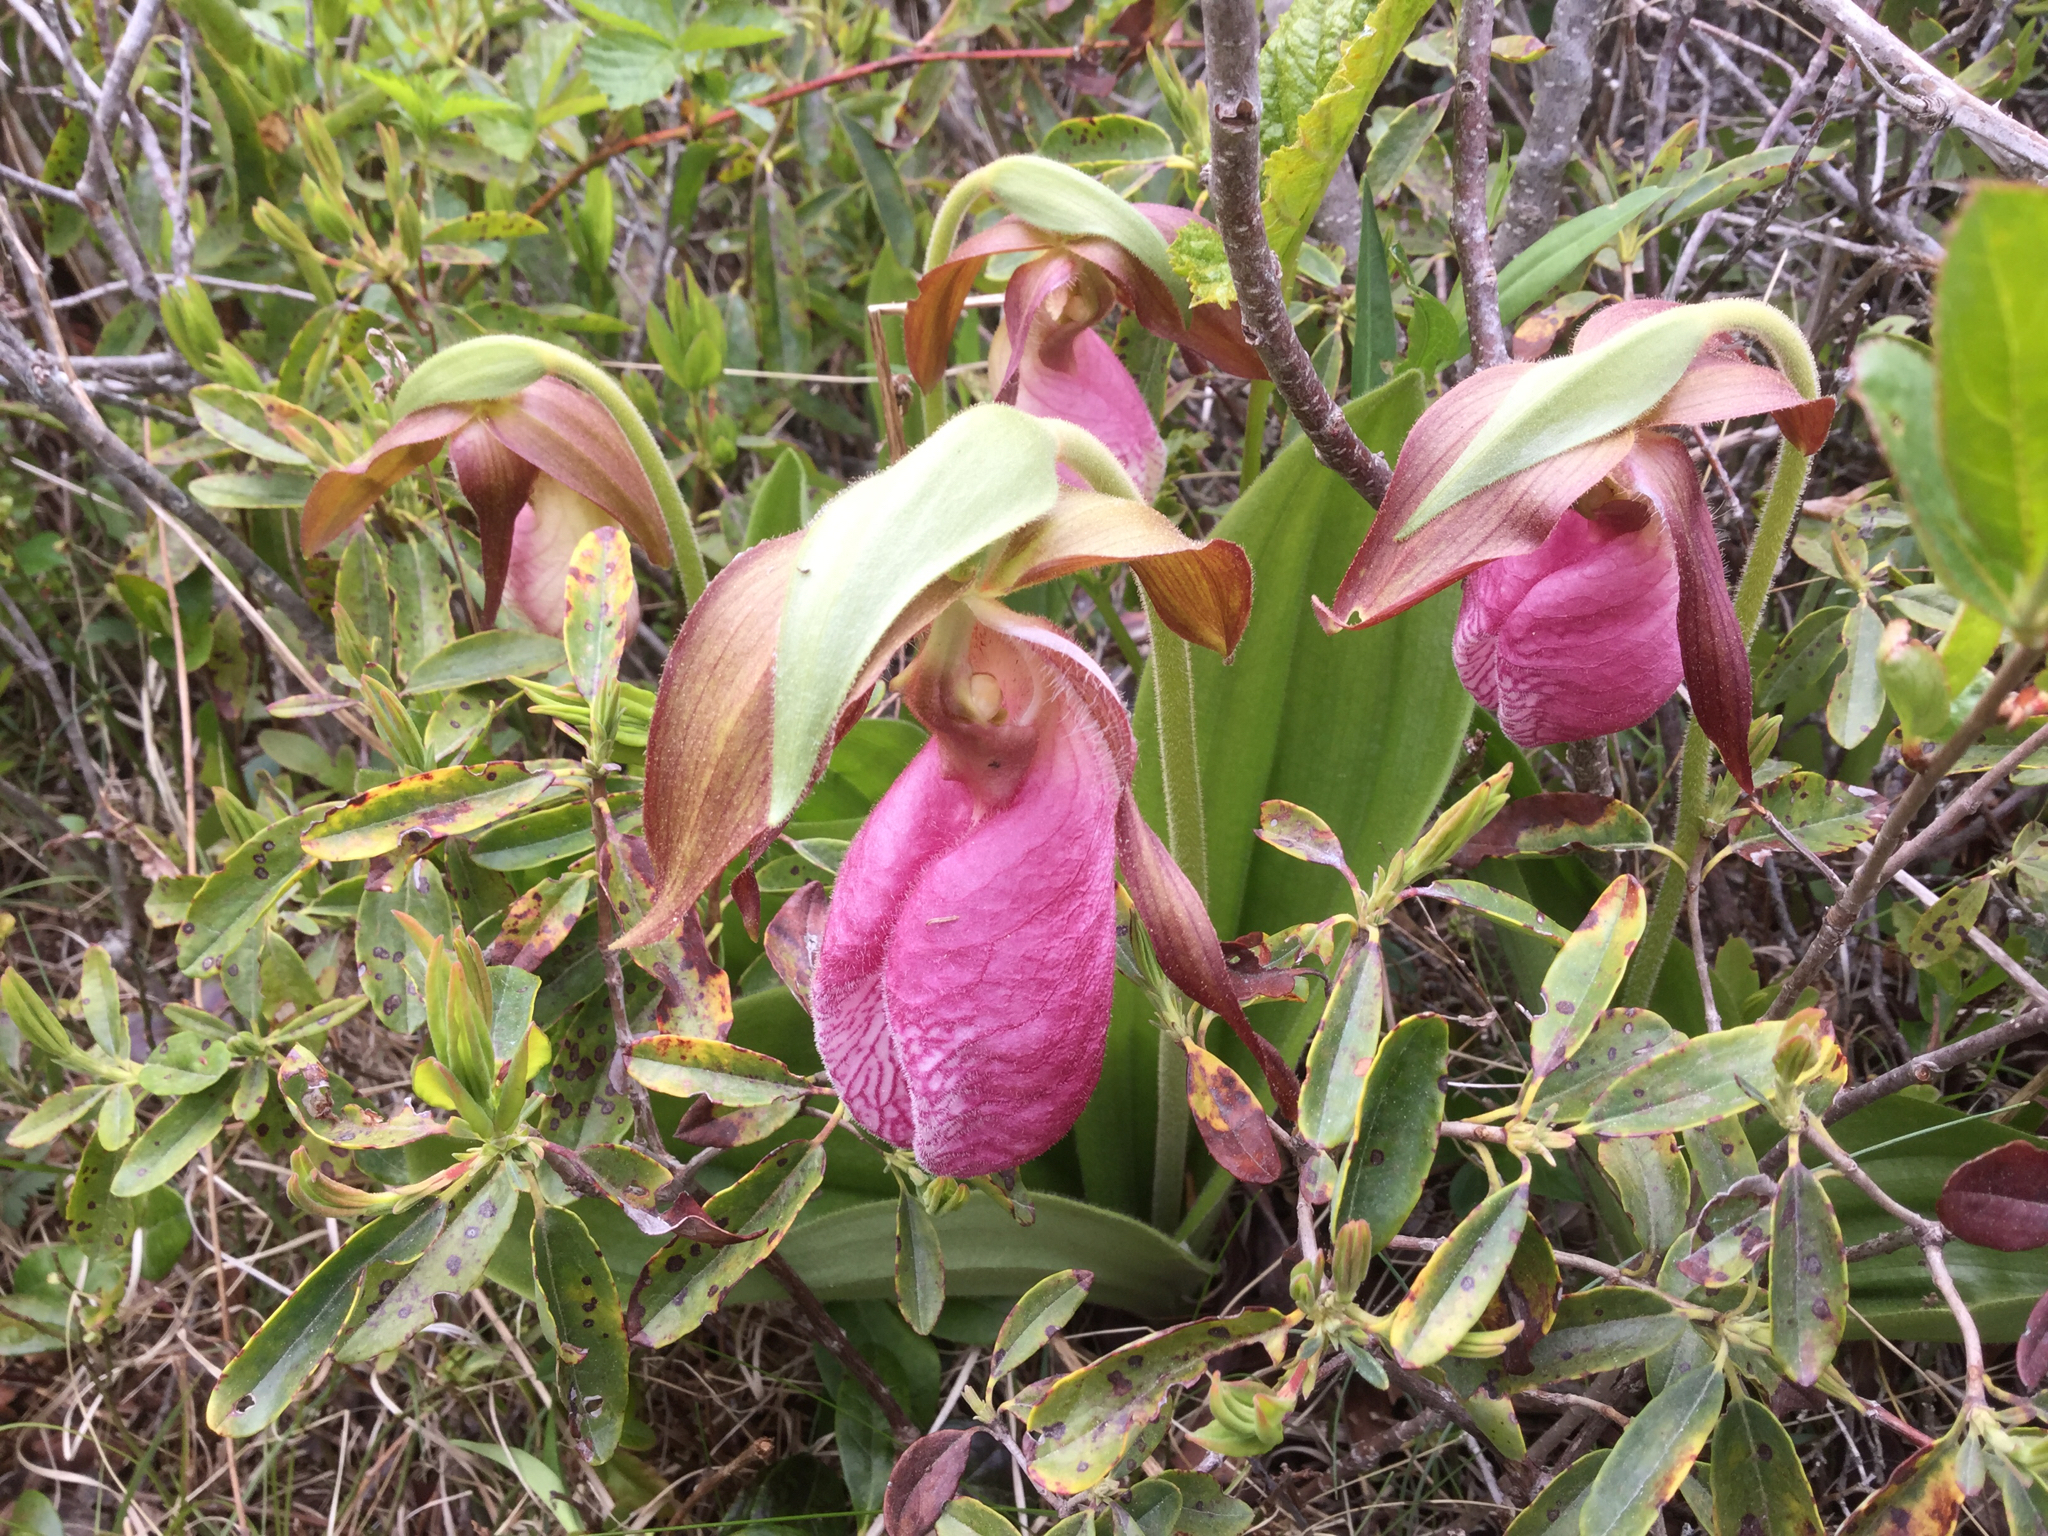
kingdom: Plantae
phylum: Tracheophyta
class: Liliopsida
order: Asparagales
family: Orchidaceae
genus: Cypripedium
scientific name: Cypripedium acaule
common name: Pink lady's-slipper
